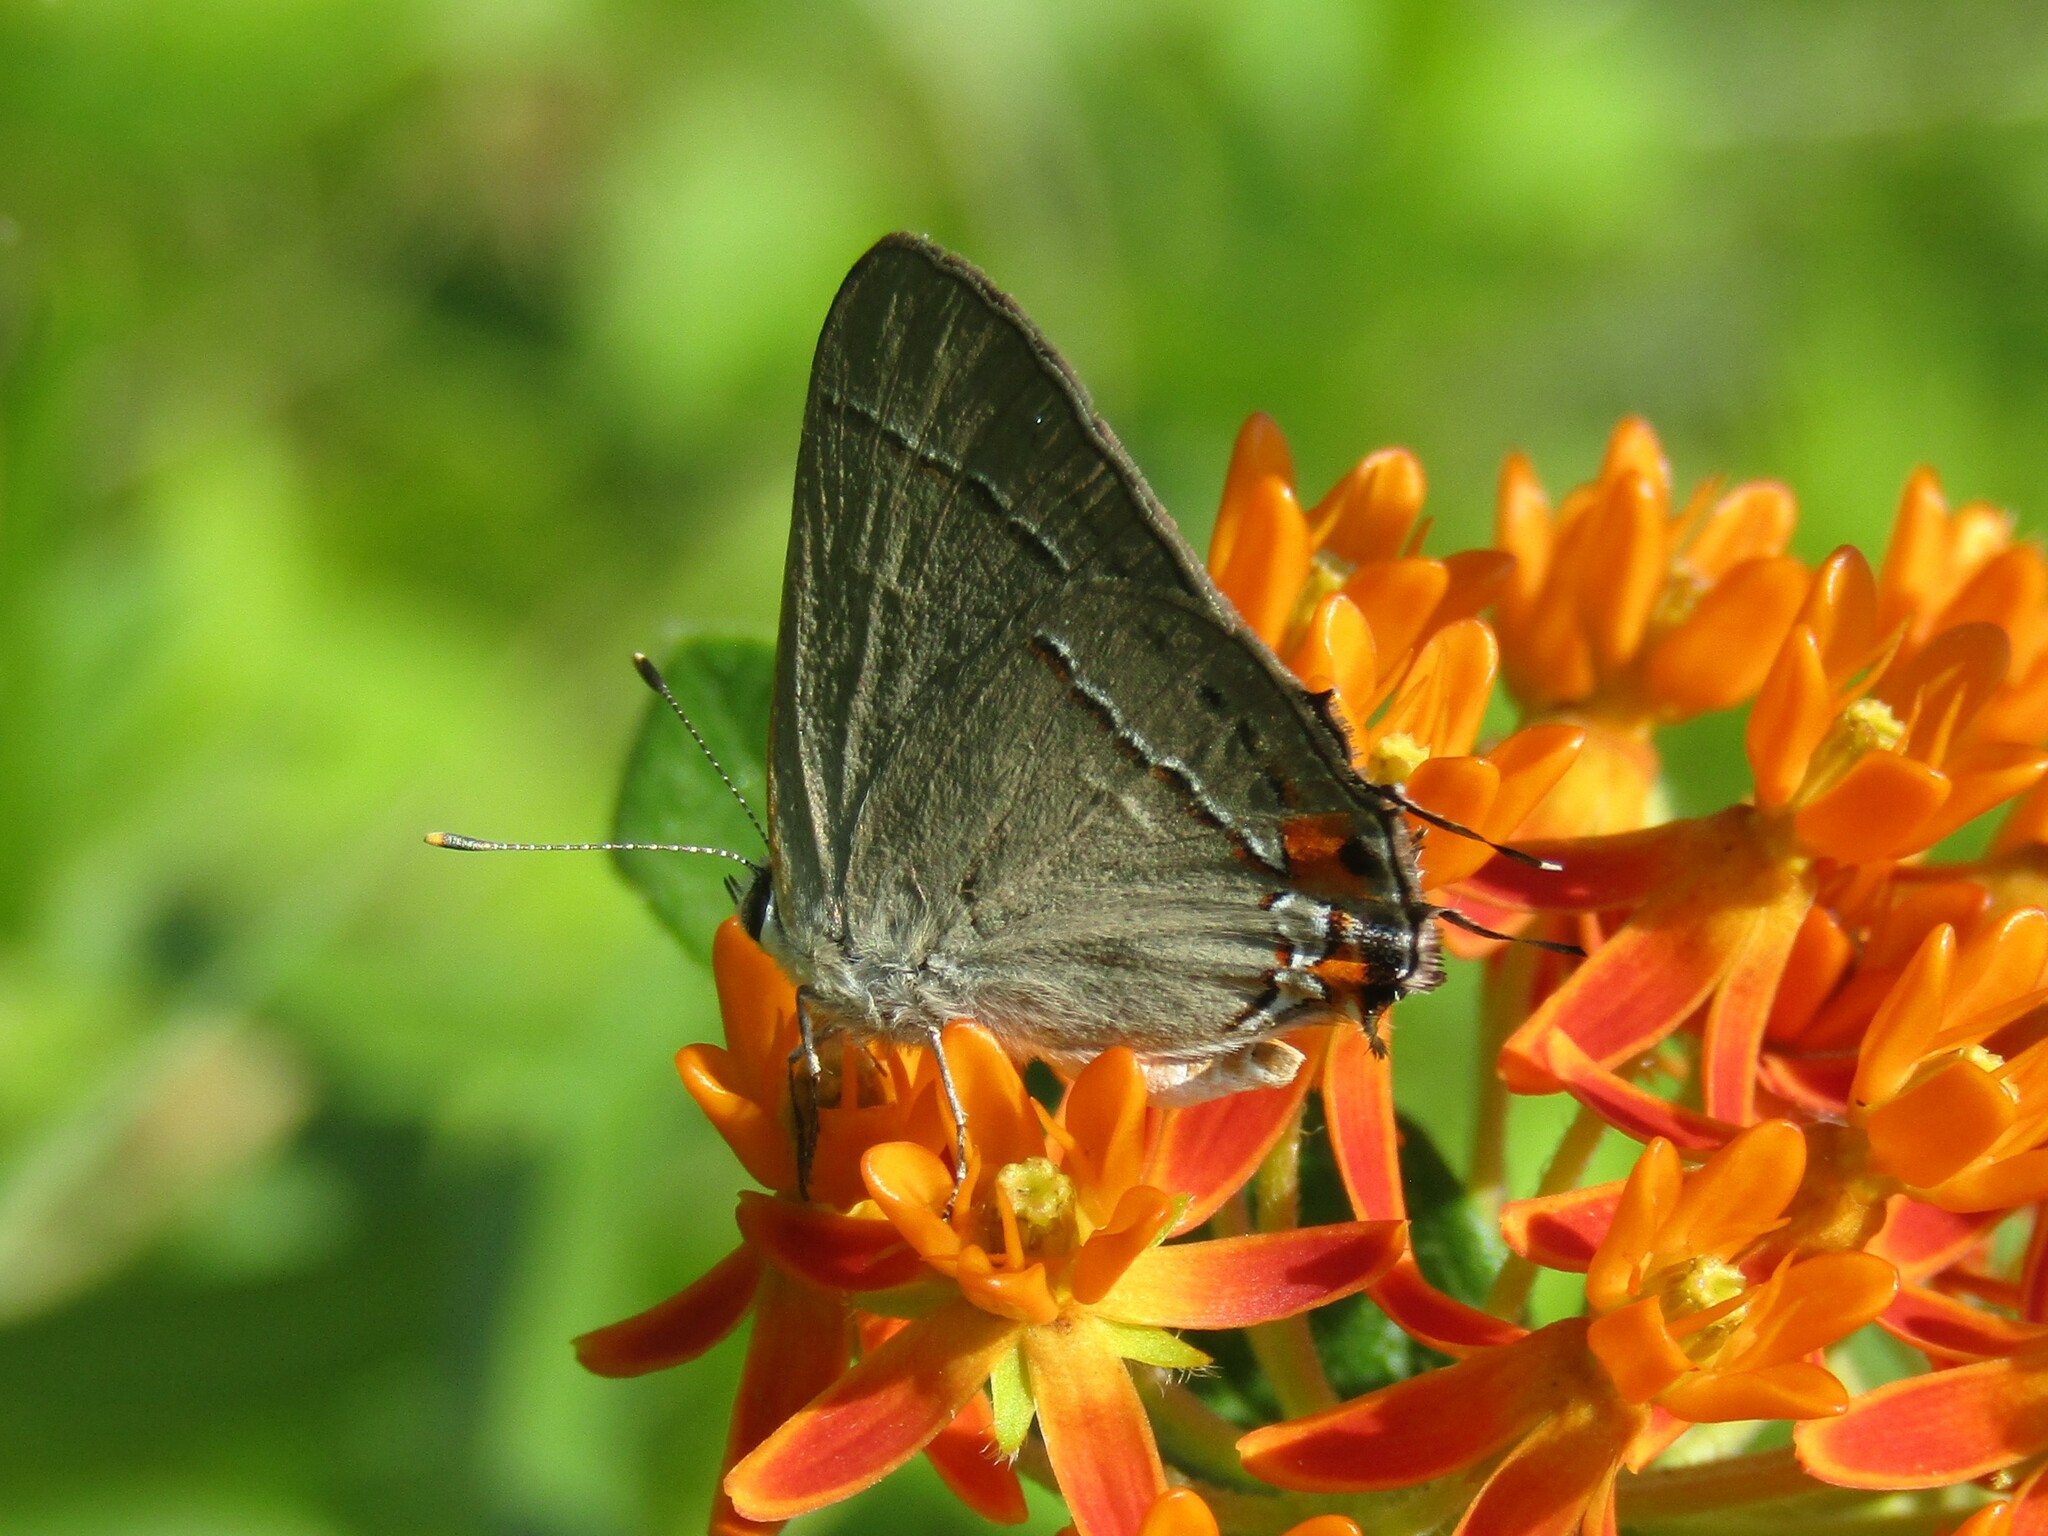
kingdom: Animalia
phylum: Arthropoda
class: Insecta
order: Lepidoptera
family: Lycaenidae
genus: Strymon
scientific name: Strymon melinus
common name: Gray hairstreak
